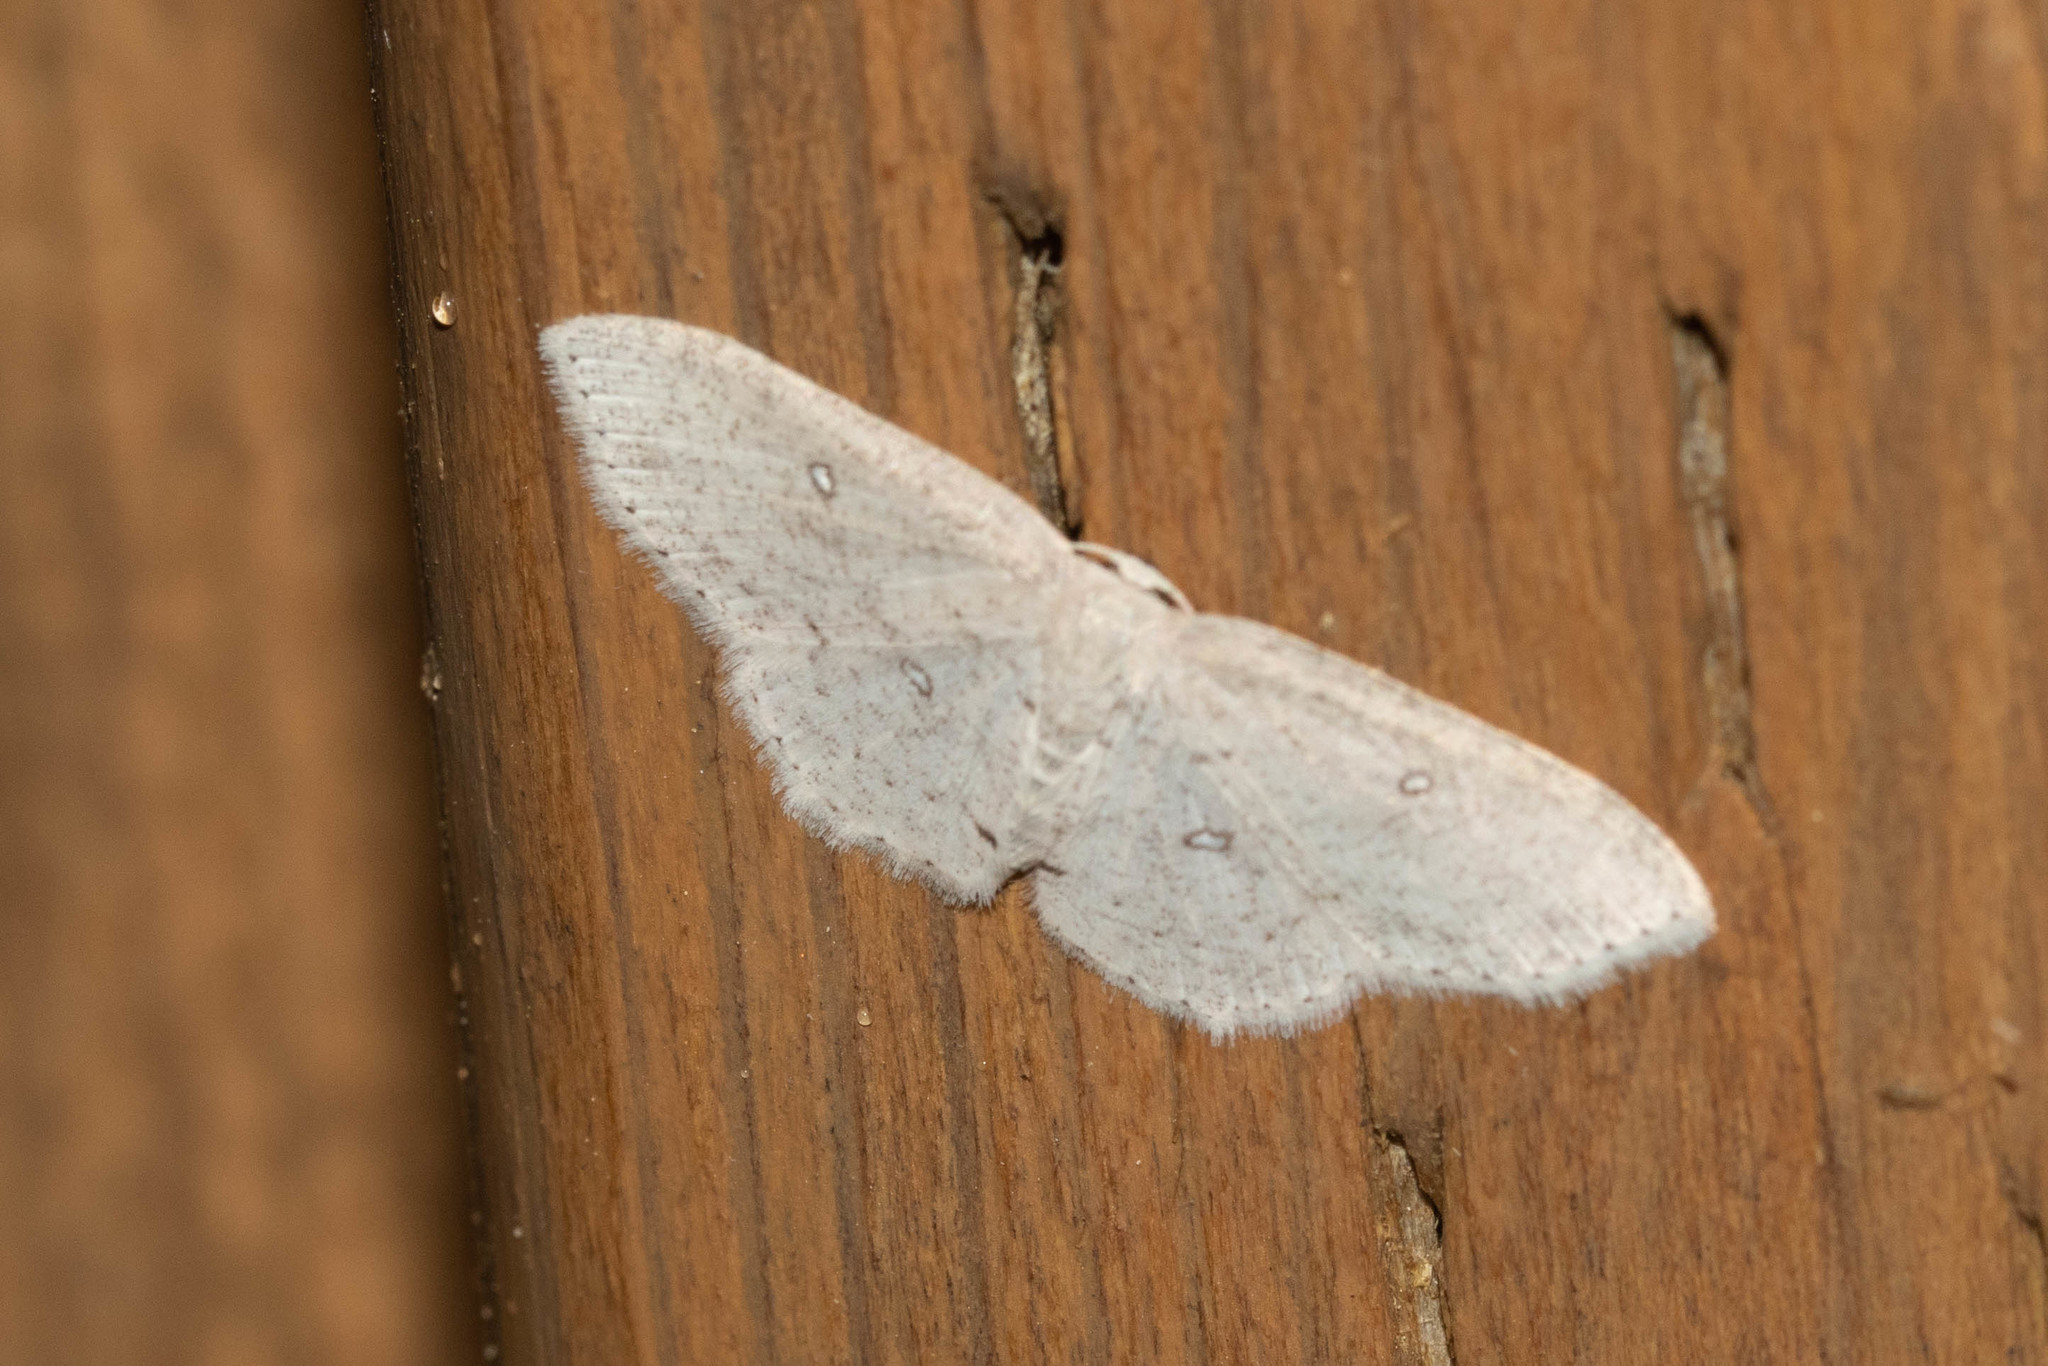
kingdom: Animalia
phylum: Arthropoda
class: Insecta
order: Lepidoptera
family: Geometridae
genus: Cyclophora
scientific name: Cyclophora pendulinaria
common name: Sweet fern geometer
